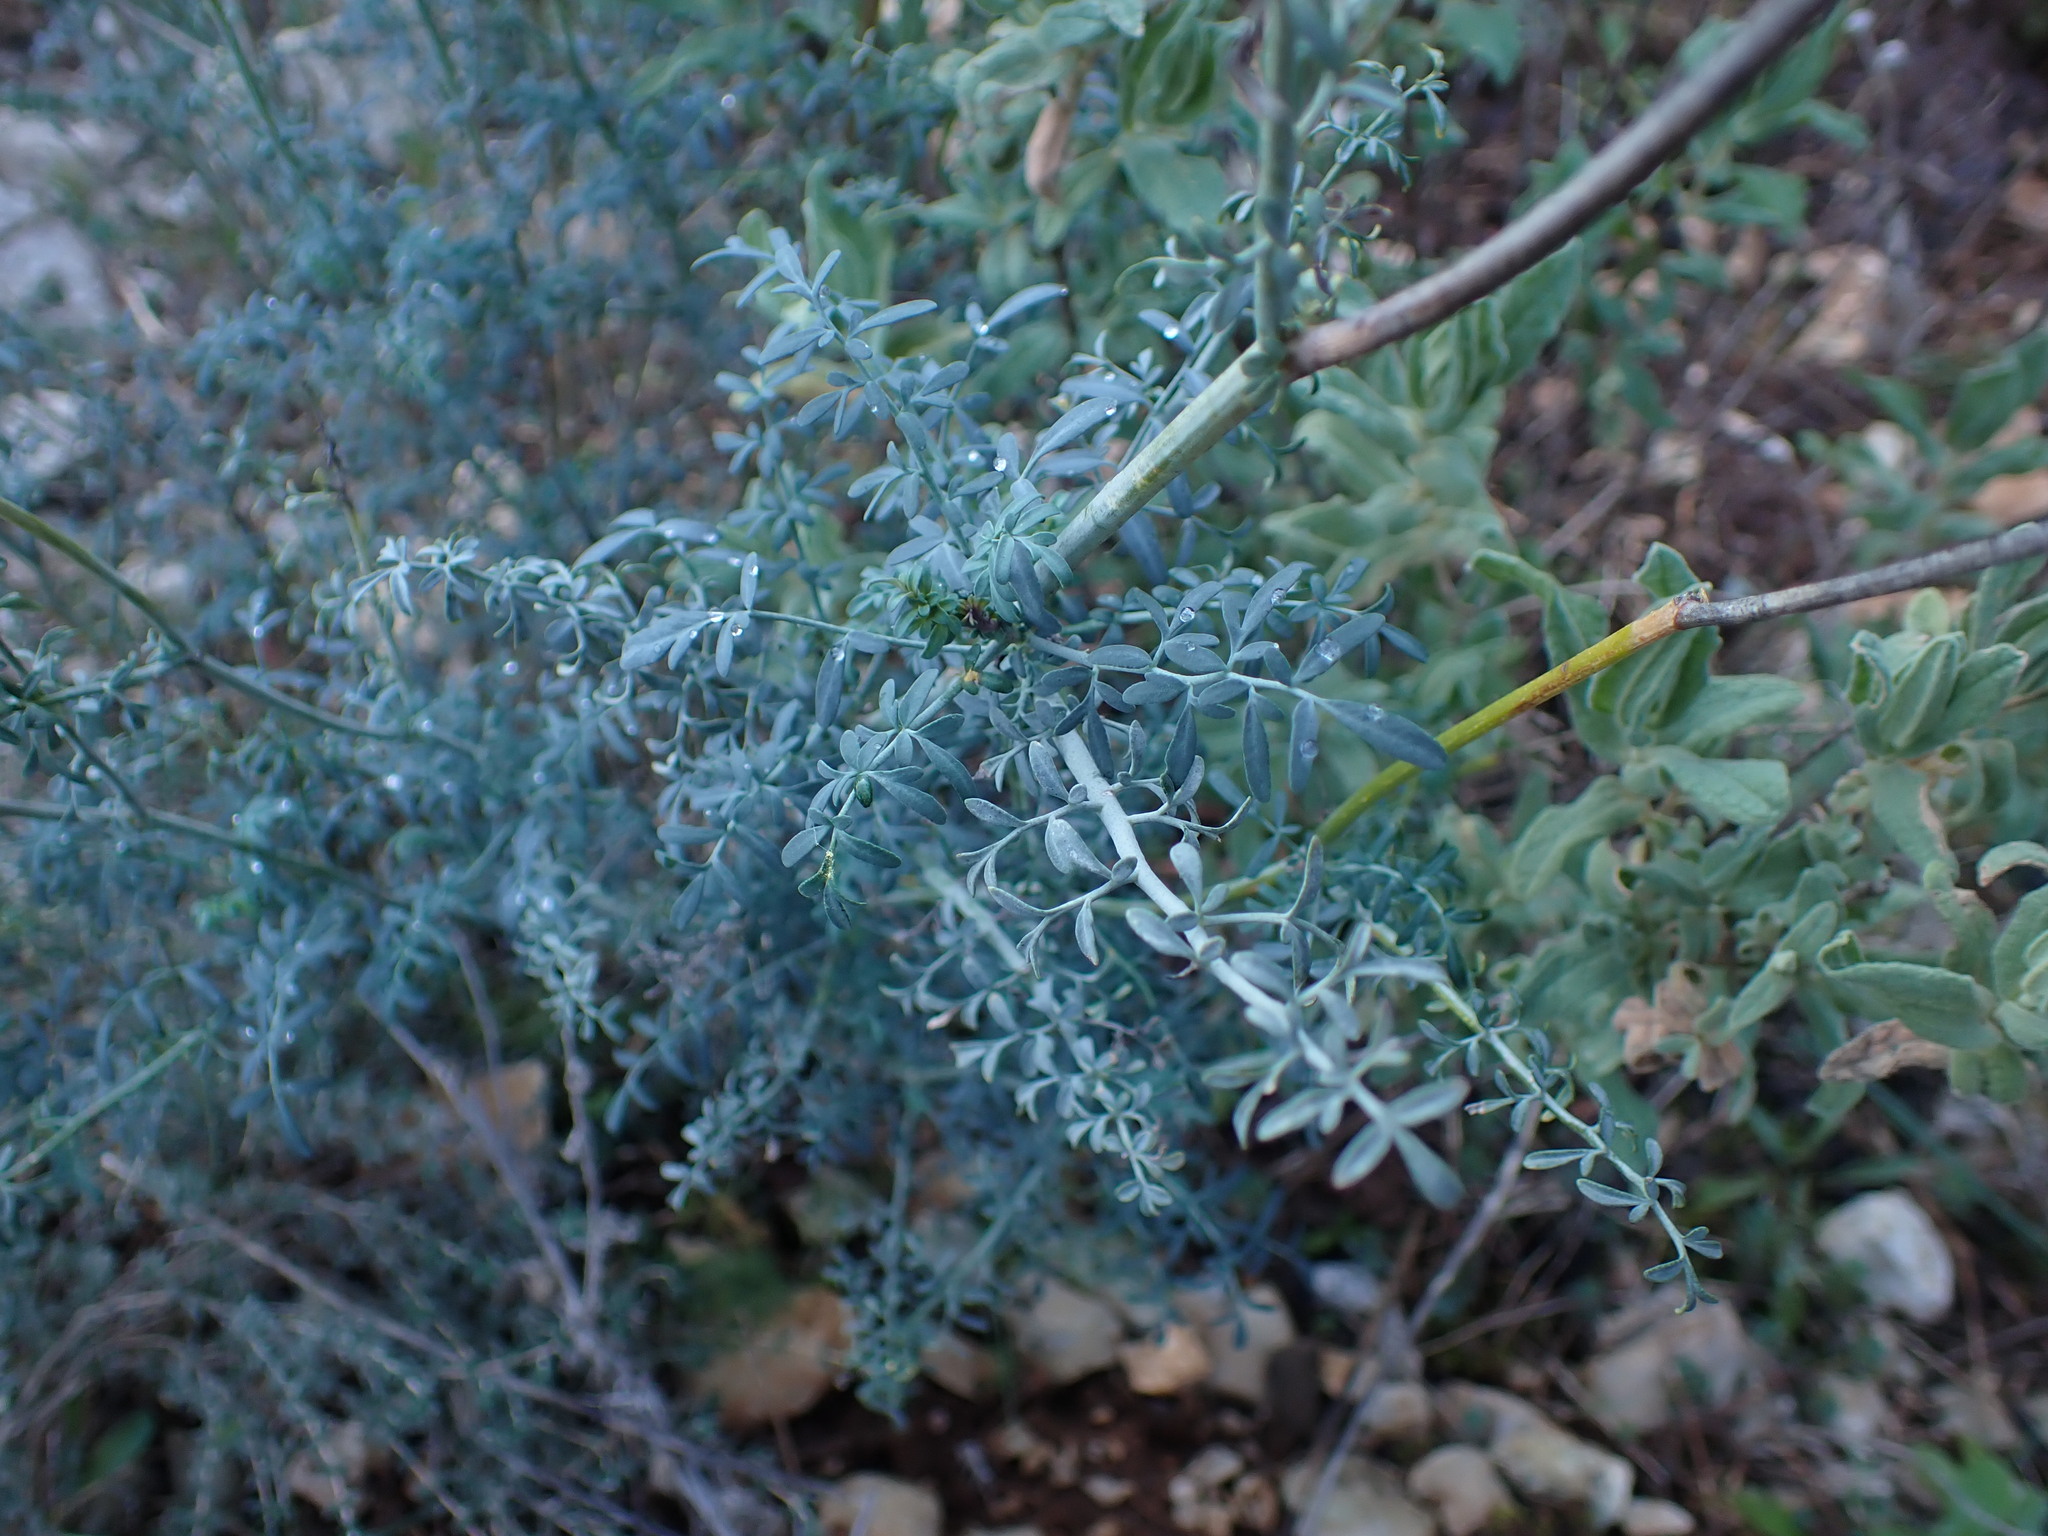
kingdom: Plantae
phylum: Tracheophyta
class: Magnoliopsida
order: Sapindales
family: Rutaceae
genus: Ruta
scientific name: Ruta angustifolia
